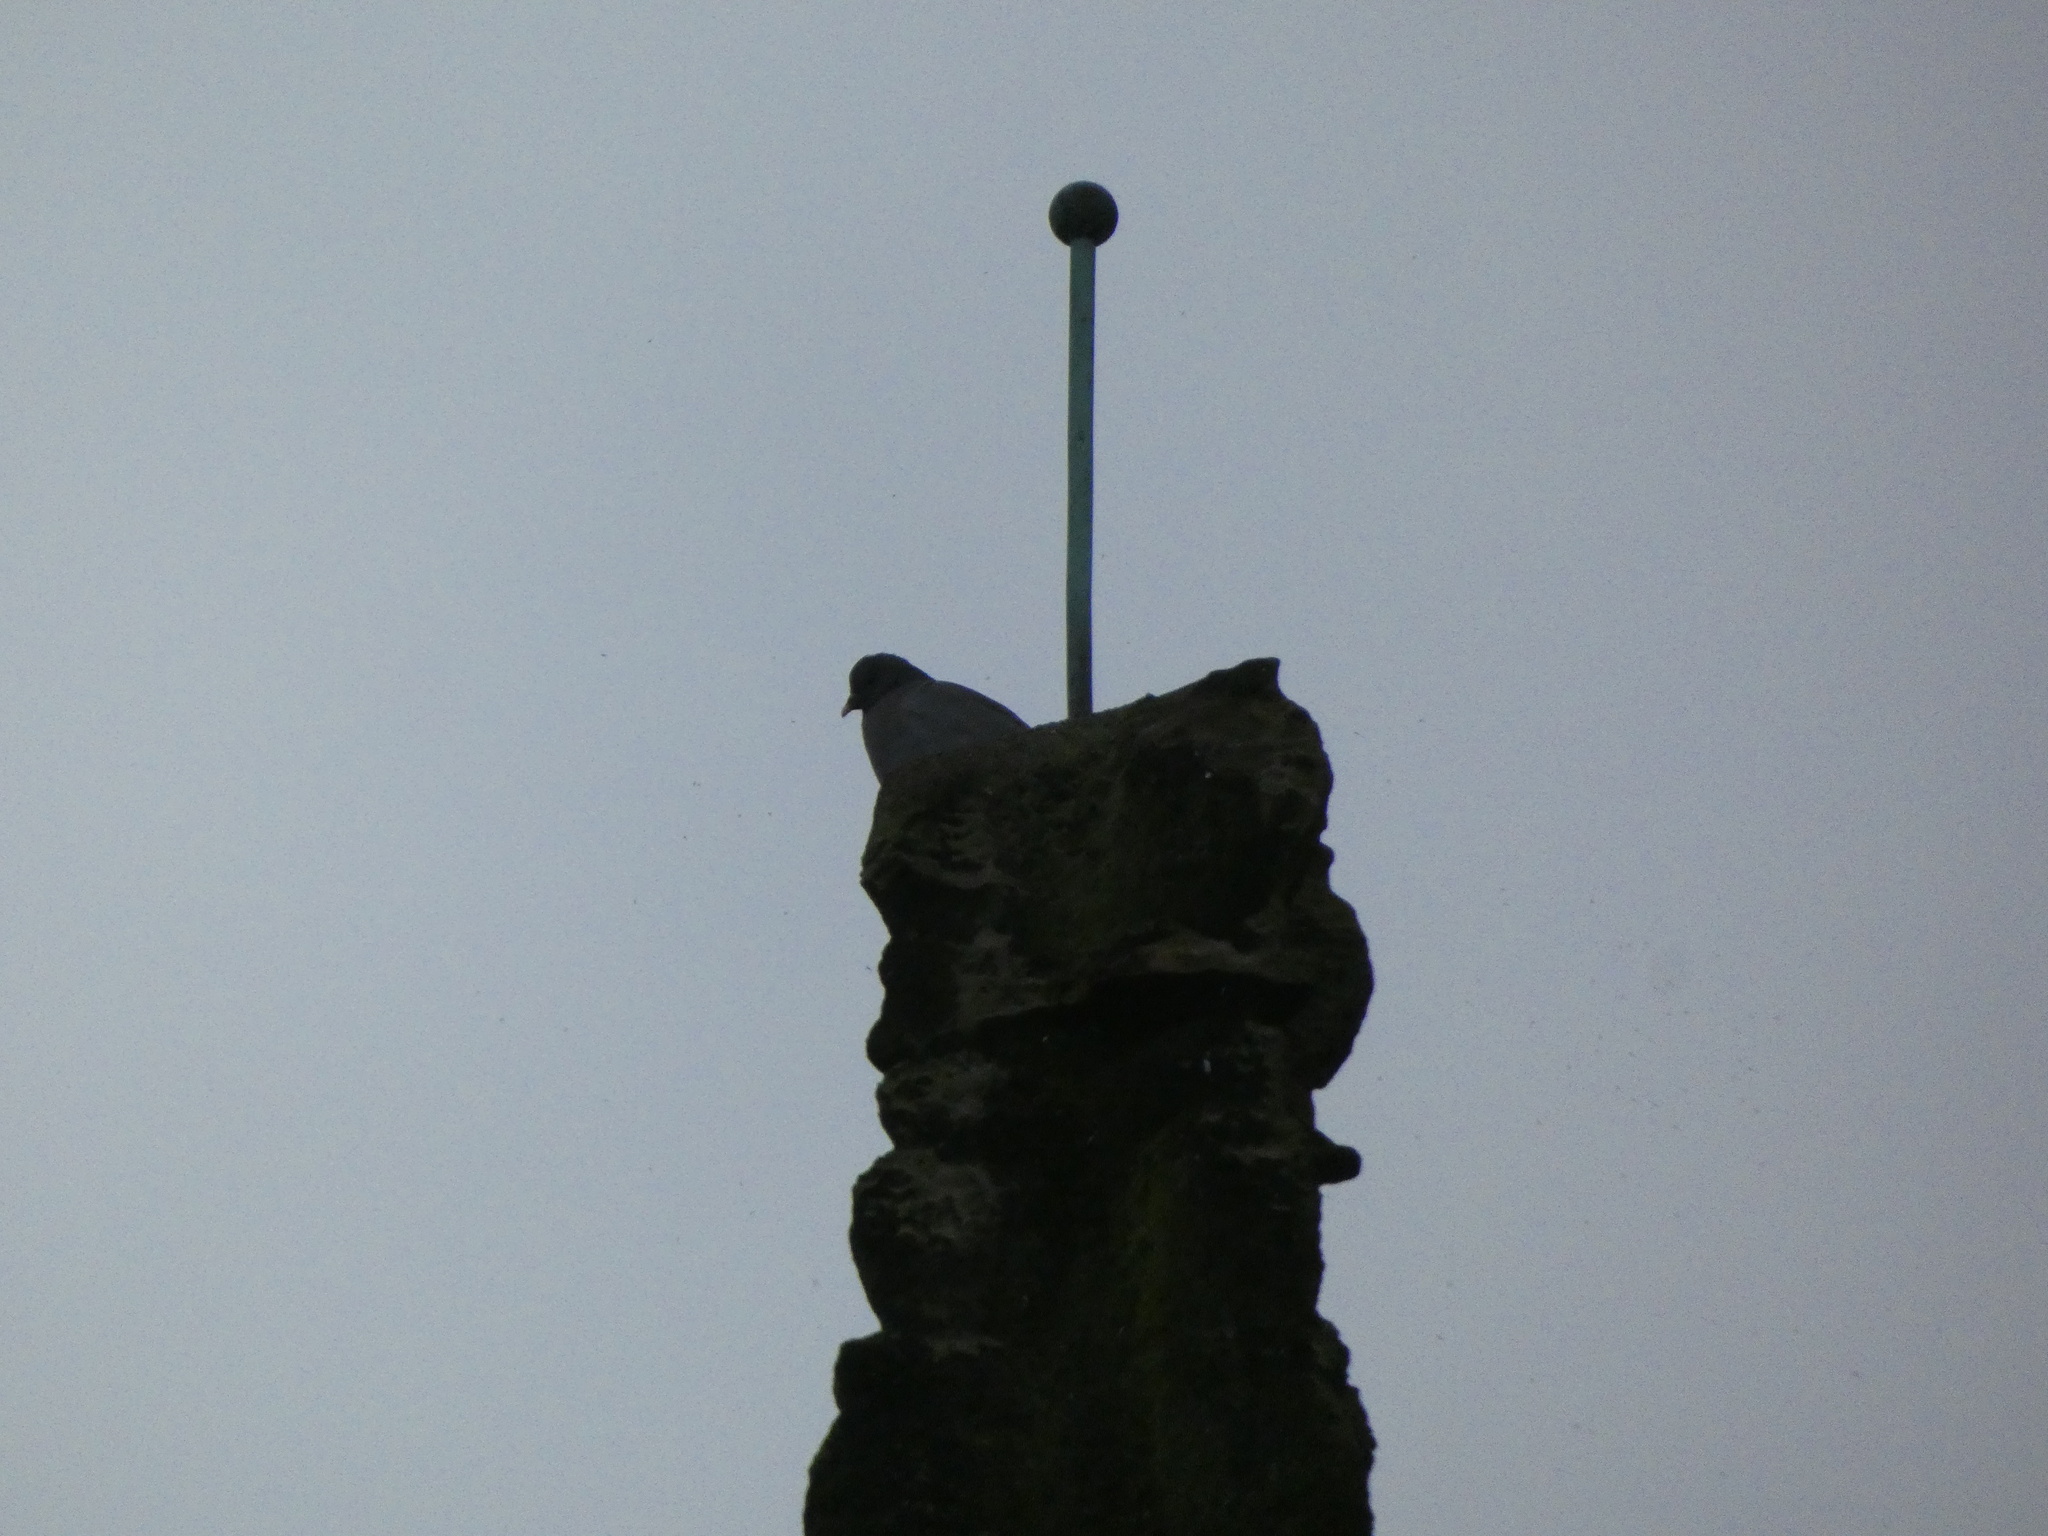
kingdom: Animalia
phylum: Chordata
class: Aves
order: Columbiformes
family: Columbidae
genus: Columba
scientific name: Columba oenas
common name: Stock dove
